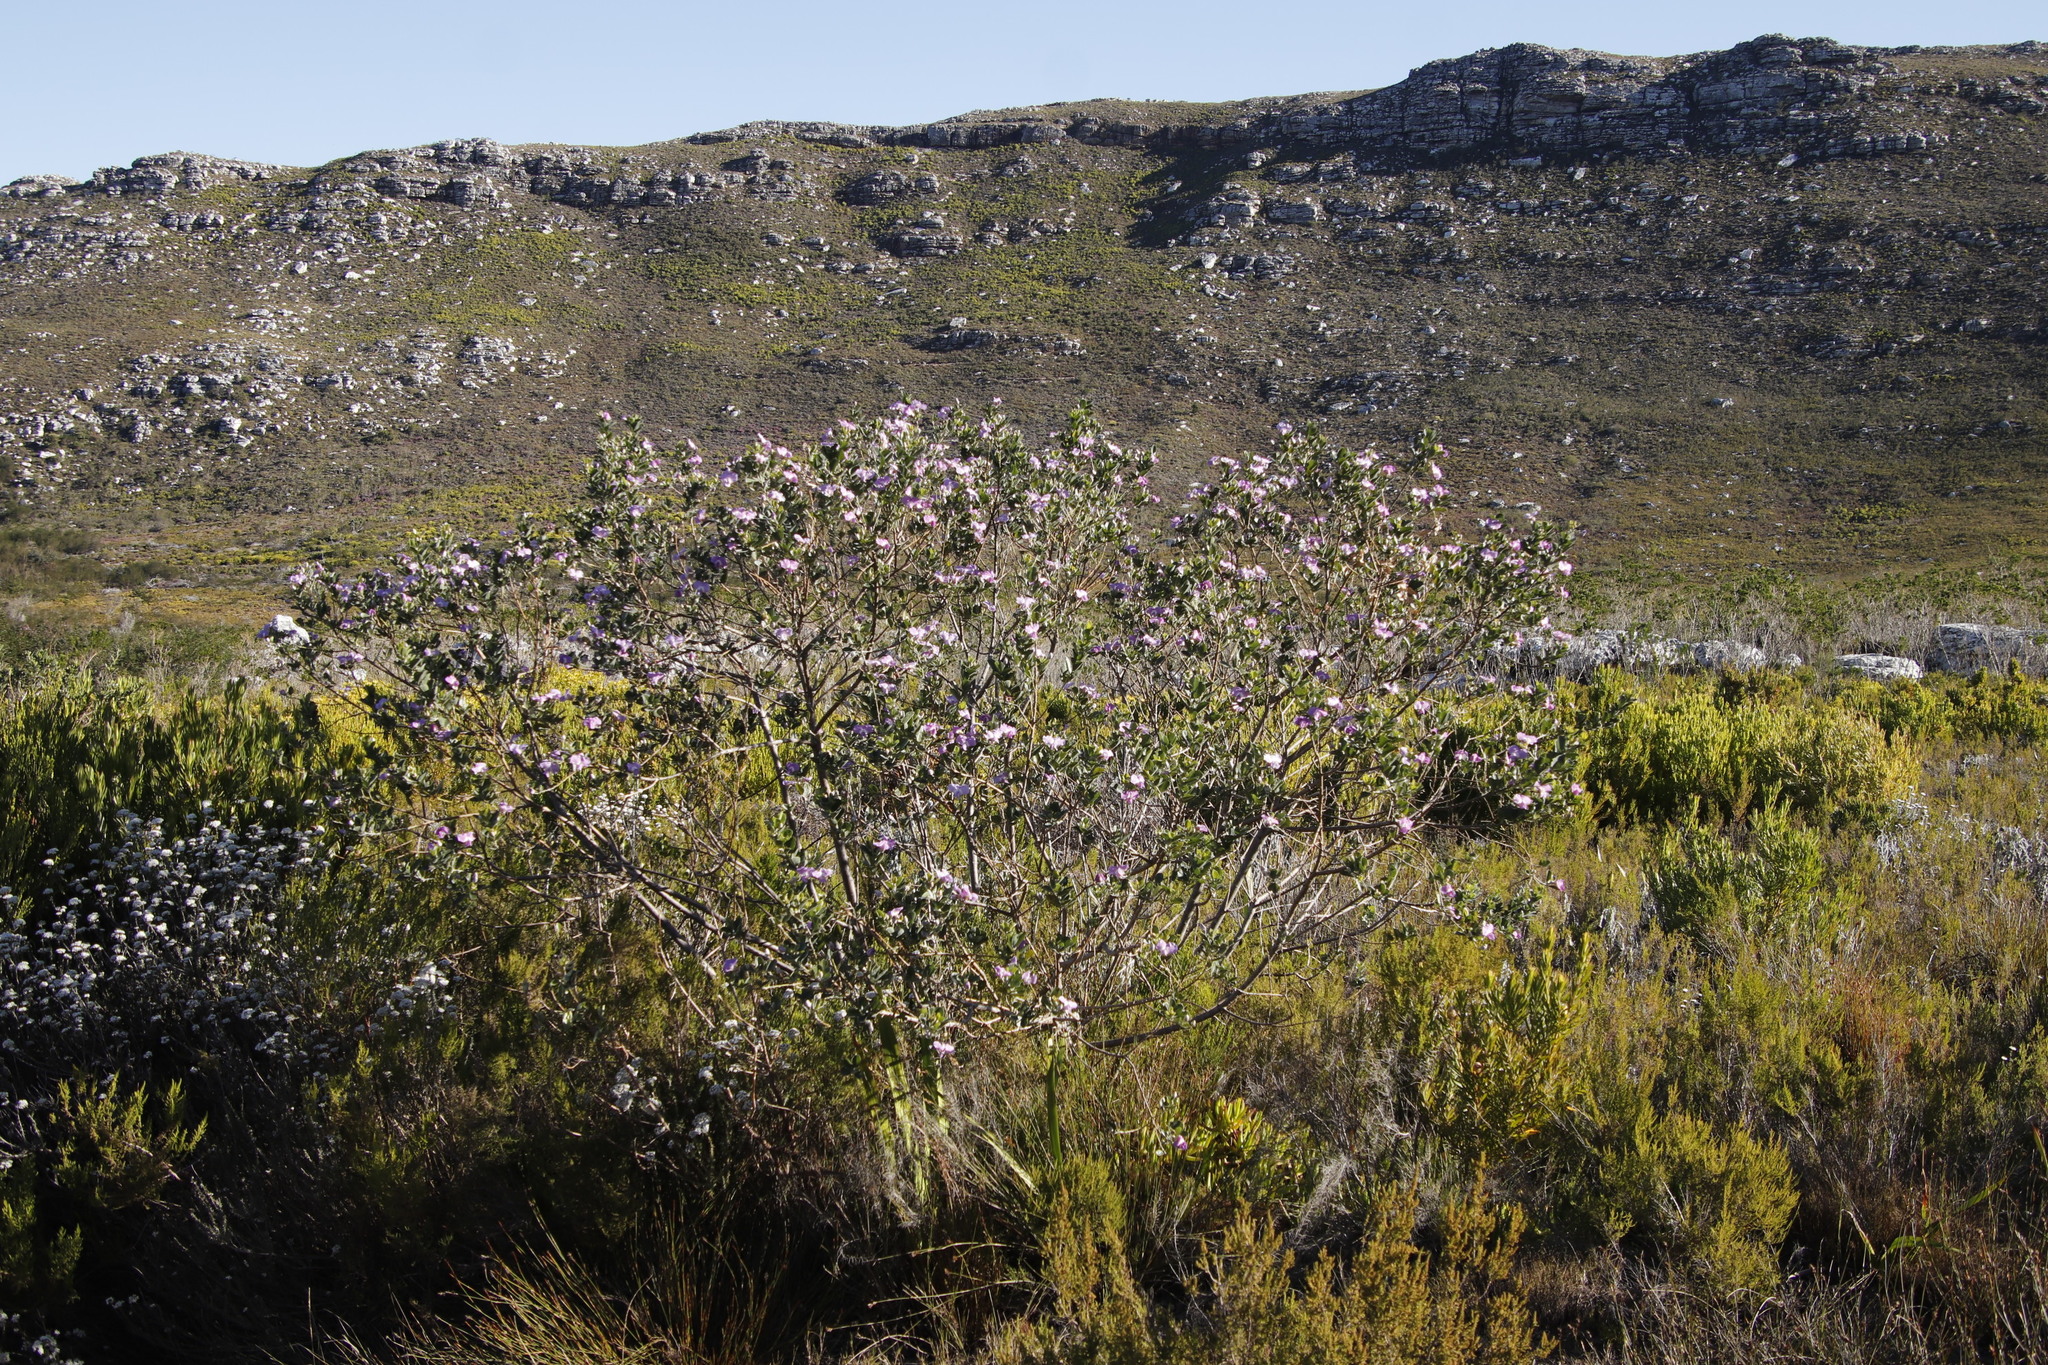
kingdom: Plantae
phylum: Tracheophyta
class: Magnoliopsida
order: Fabales
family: Fabaceae
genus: Podalyria
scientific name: Podalyria calyptrata
